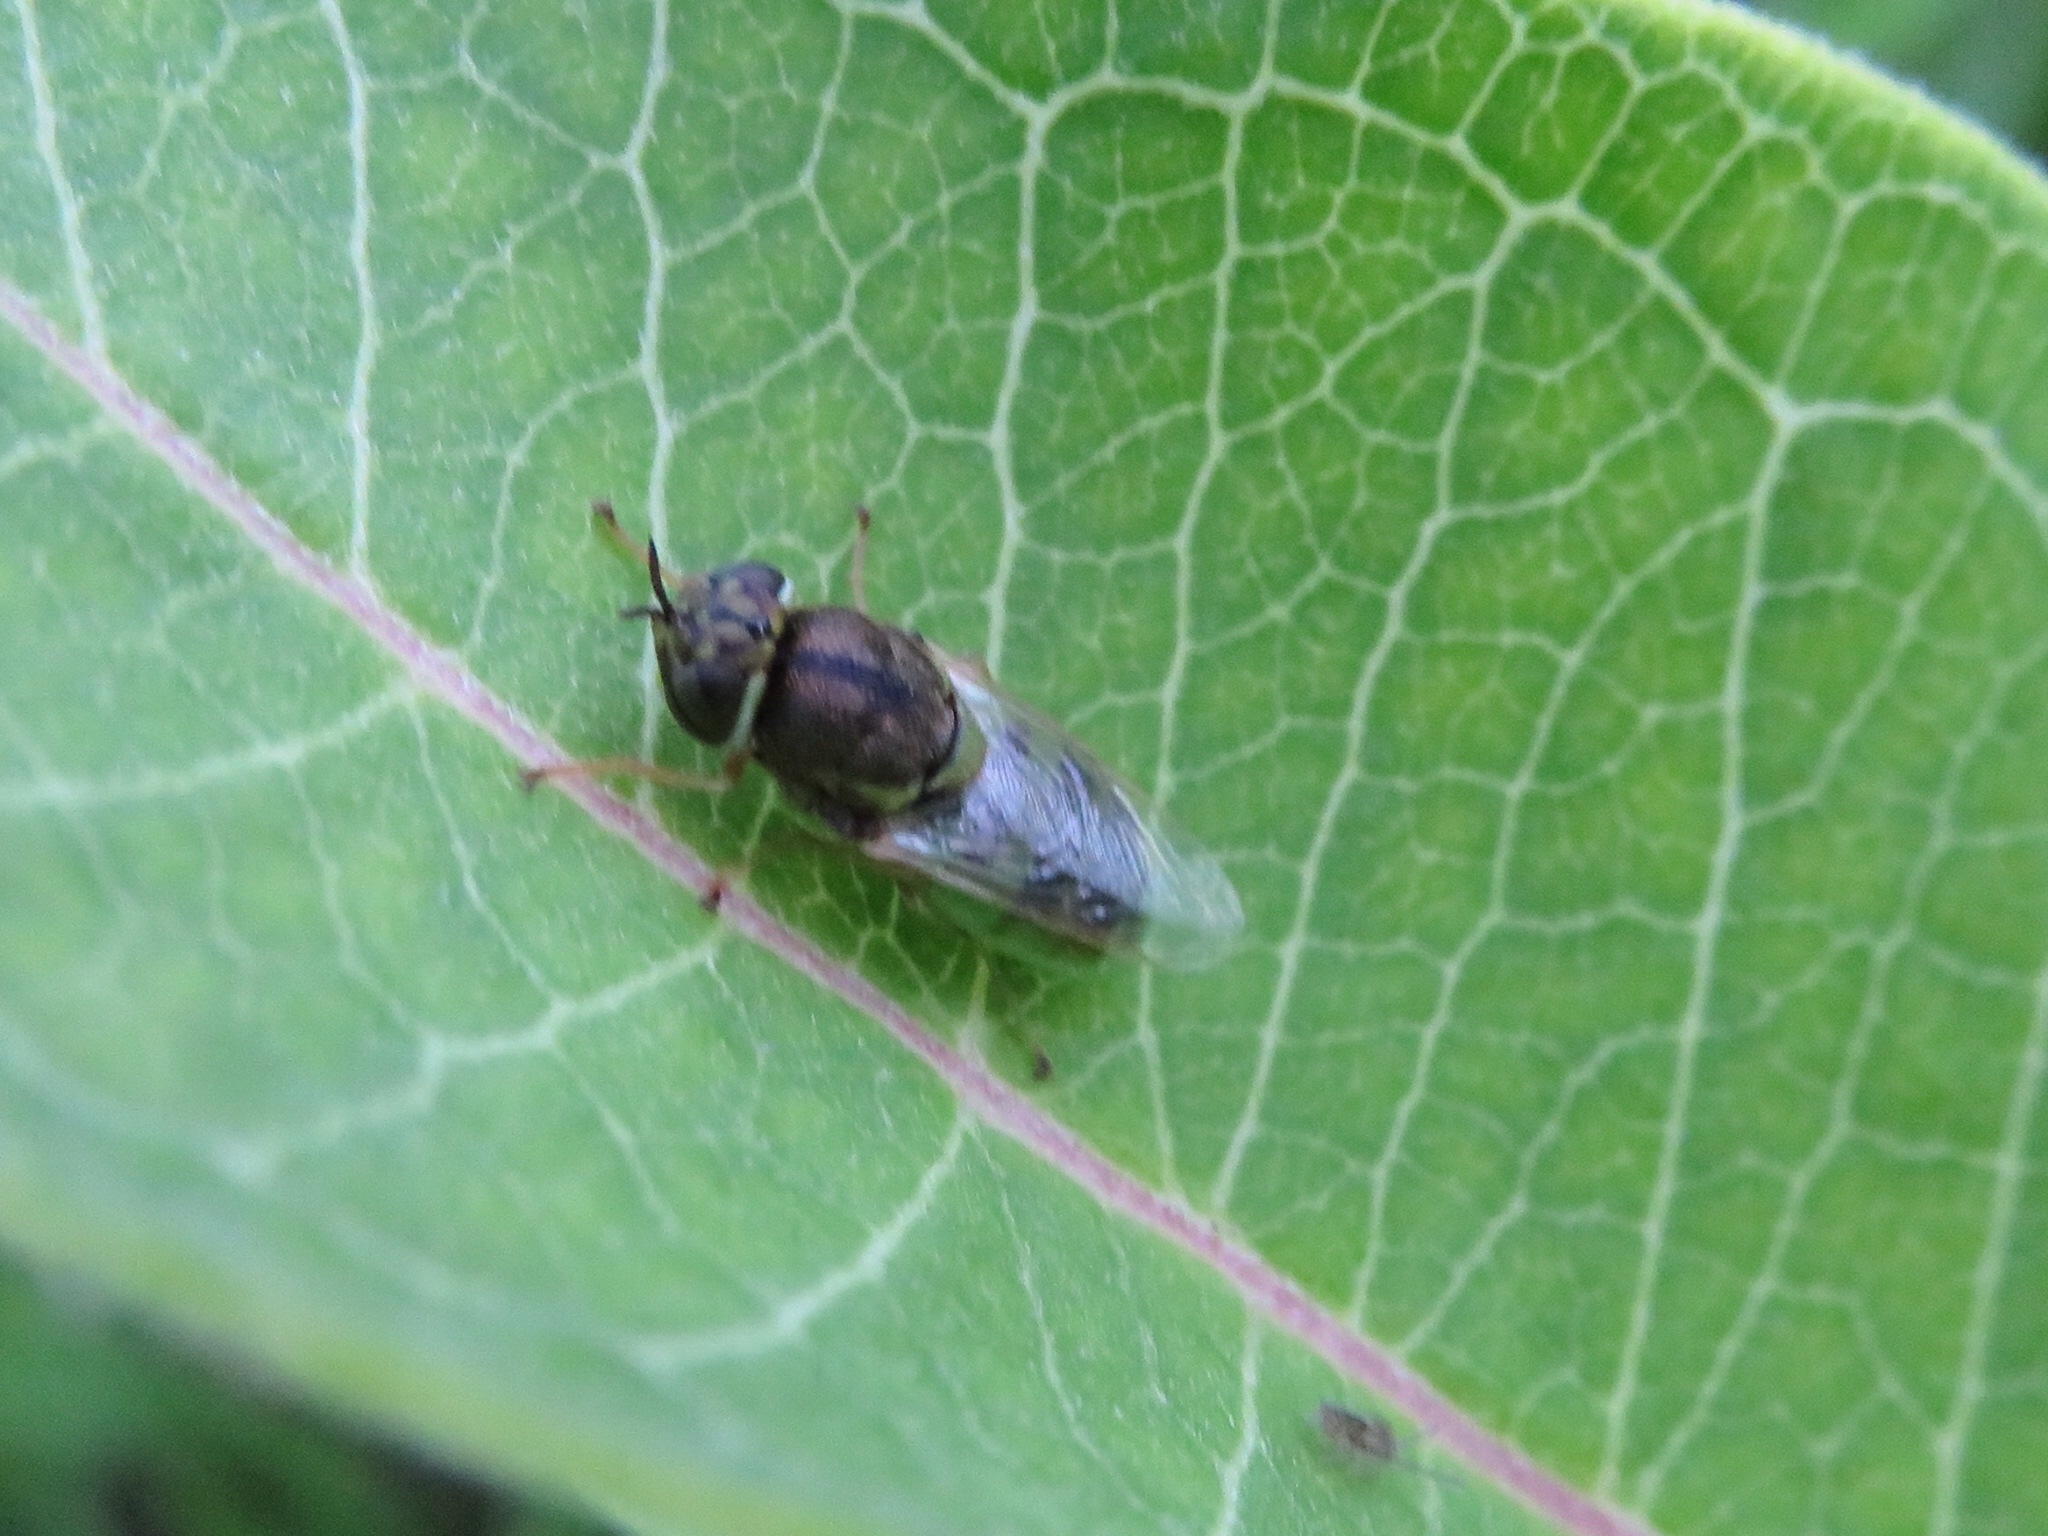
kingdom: Animalia
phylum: Arthropoda
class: Insecta
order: Diptera
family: Stratiomyidae
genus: Hedriodiscus
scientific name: Hedriodiscus vertebratus
